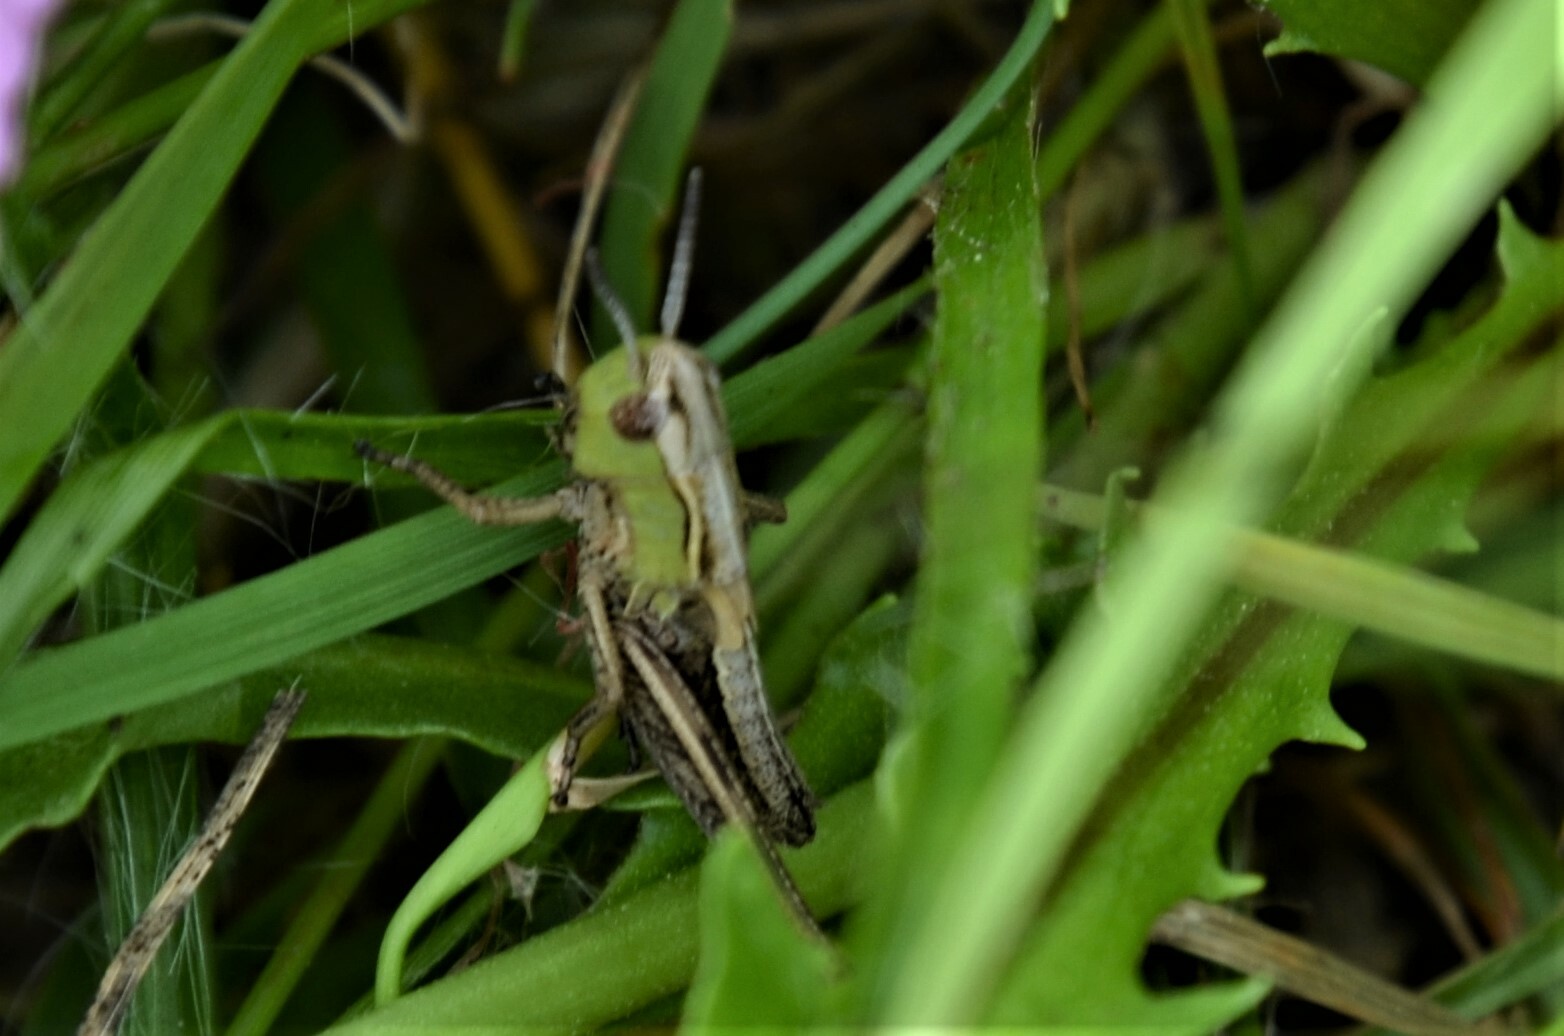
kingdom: Animalia
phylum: Arthropoda
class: Insecta
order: Orthoptera
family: Acrididae
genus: Stenobothrus
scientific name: Stenobothrus lineatus
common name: Stripe-winged grasshopper
